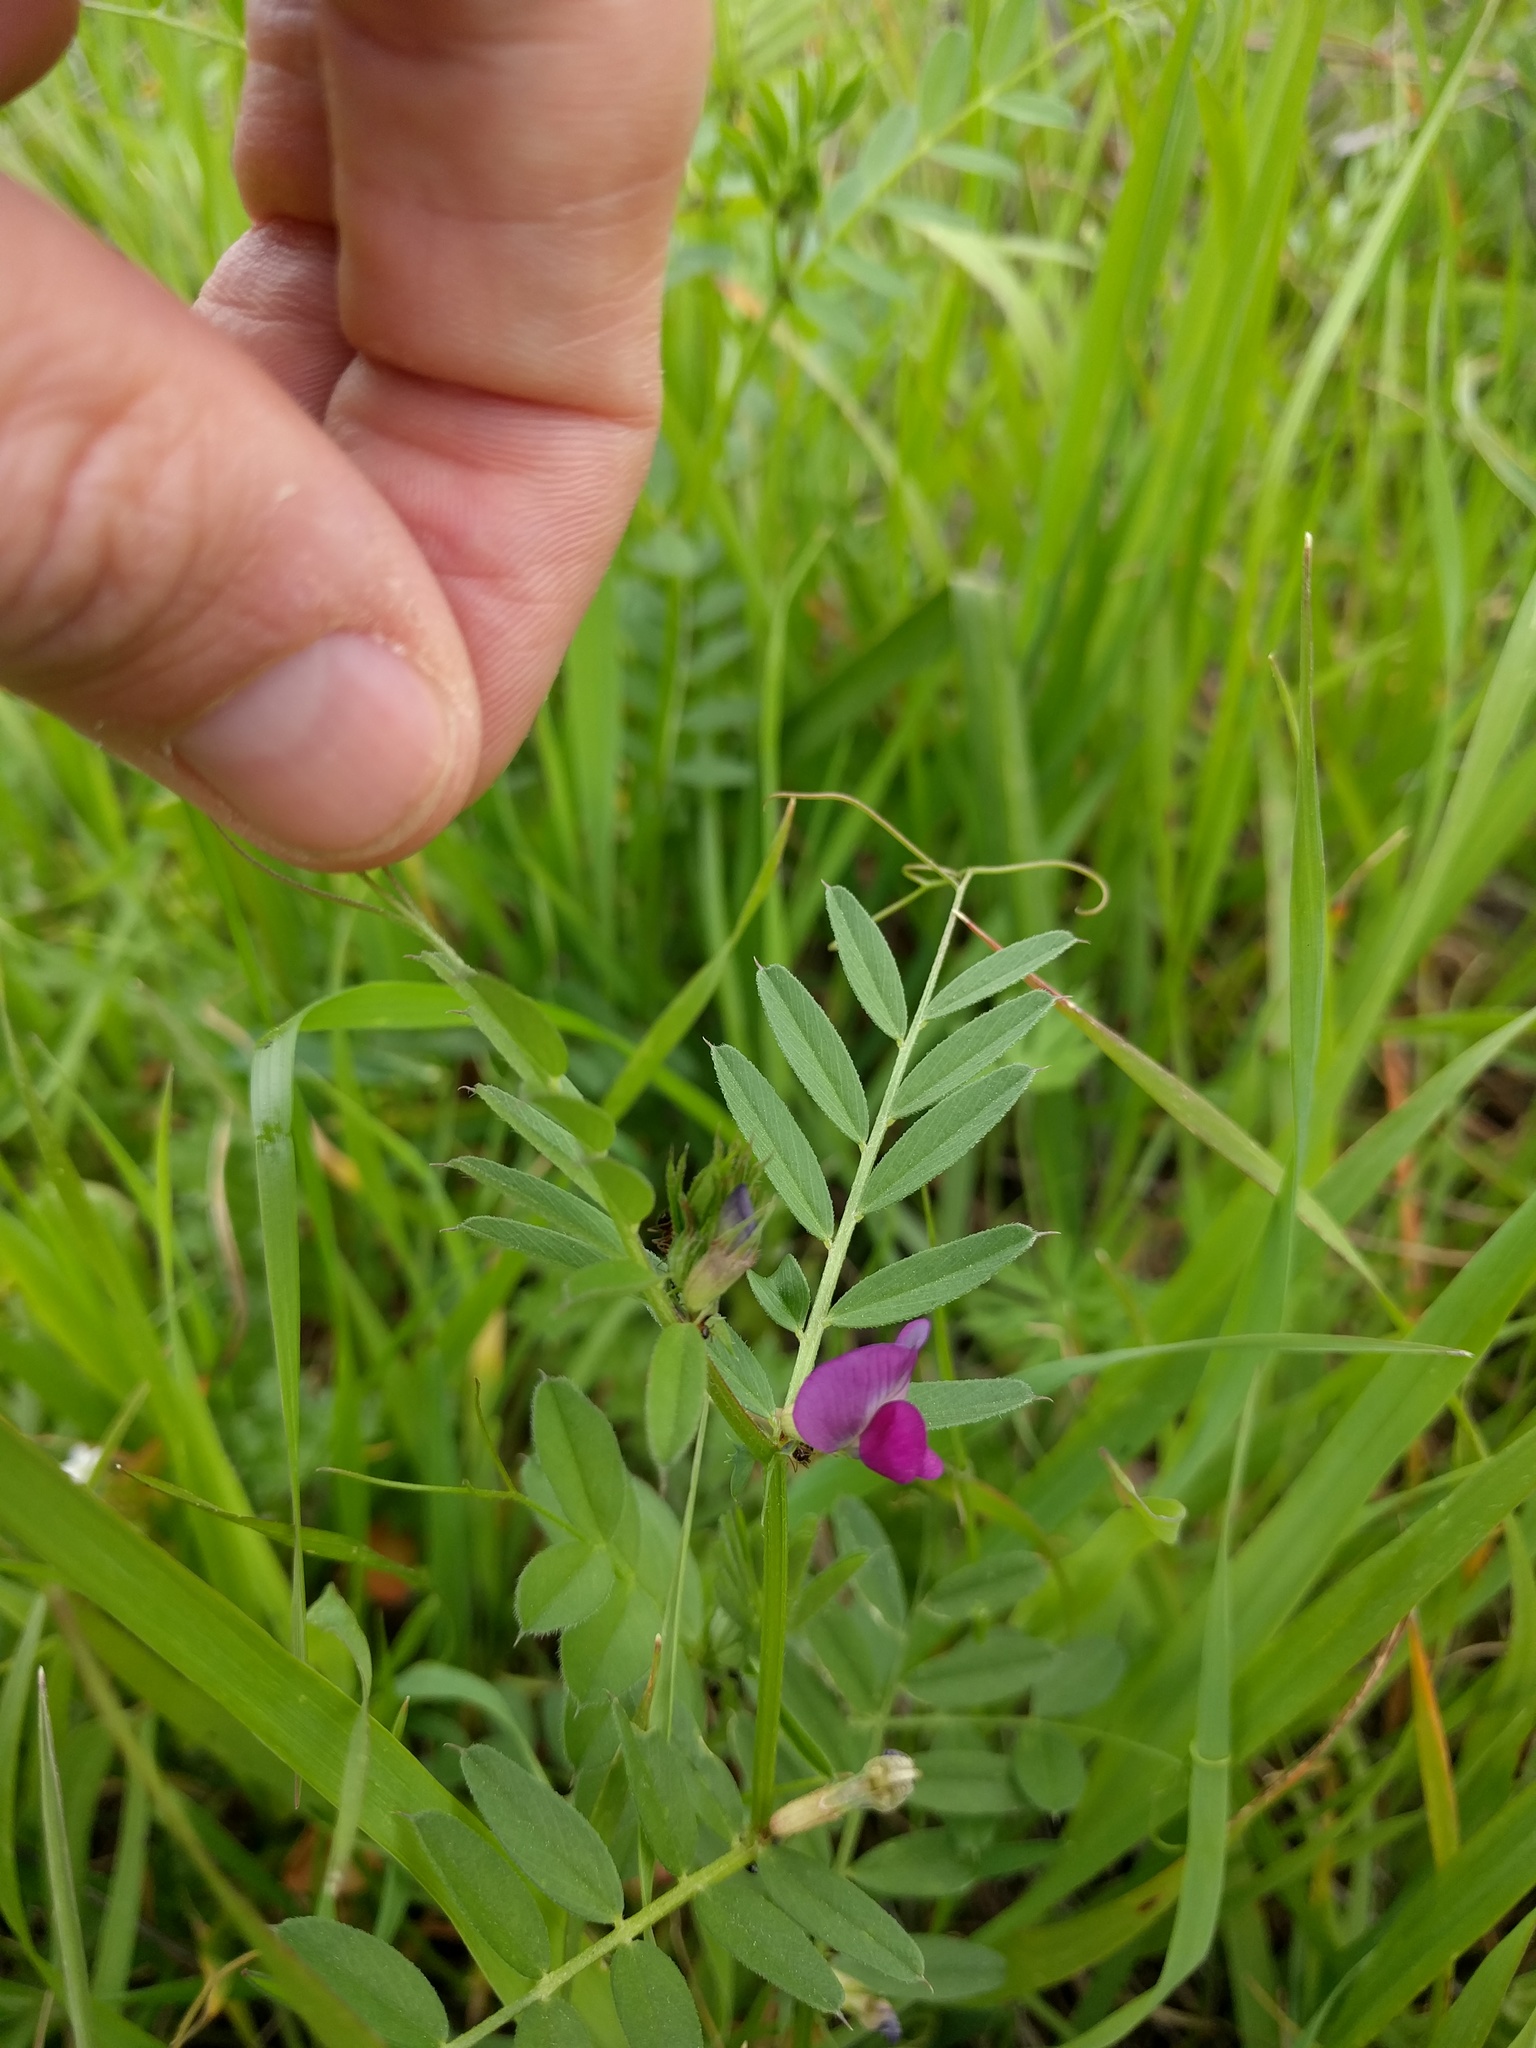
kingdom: Plantae
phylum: Tracheophyta
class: Magnoliopsida
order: Fabales
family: Fabaceae
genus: Vicia
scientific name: Vicia sativa
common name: Garden vetch
